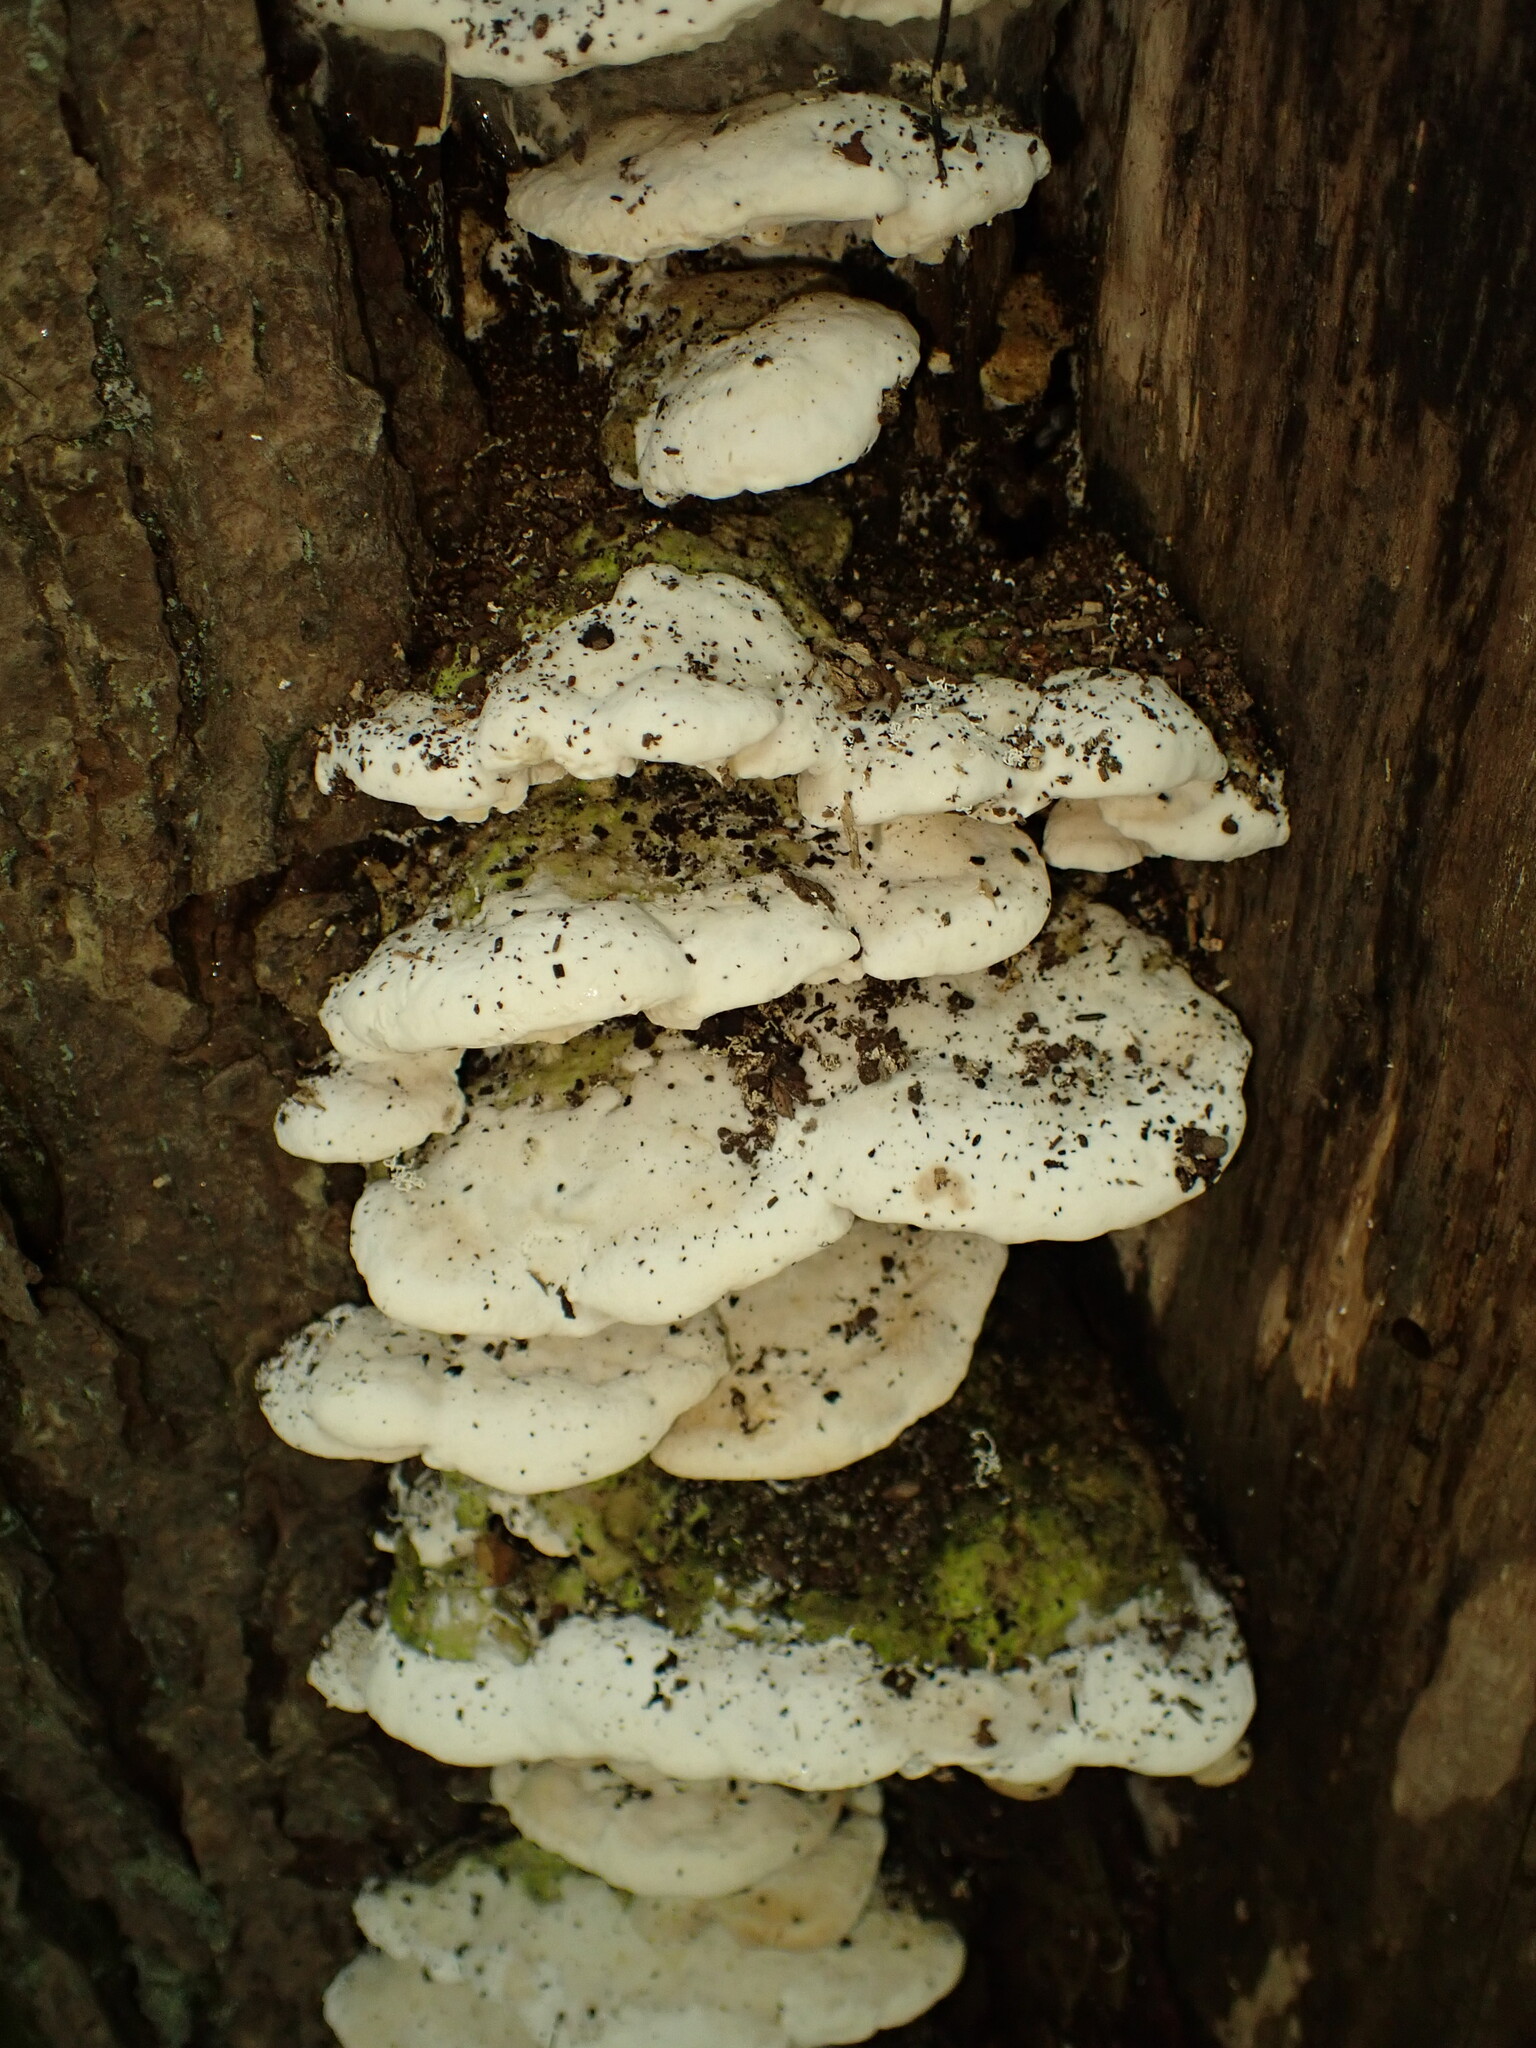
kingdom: Fungi
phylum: Basidiomycota
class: Agaricomycetes
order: Hymenochaetales
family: Oxyporaceae
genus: Oxyporus
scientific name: Oxyporus populinus
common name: Poplar bracket
